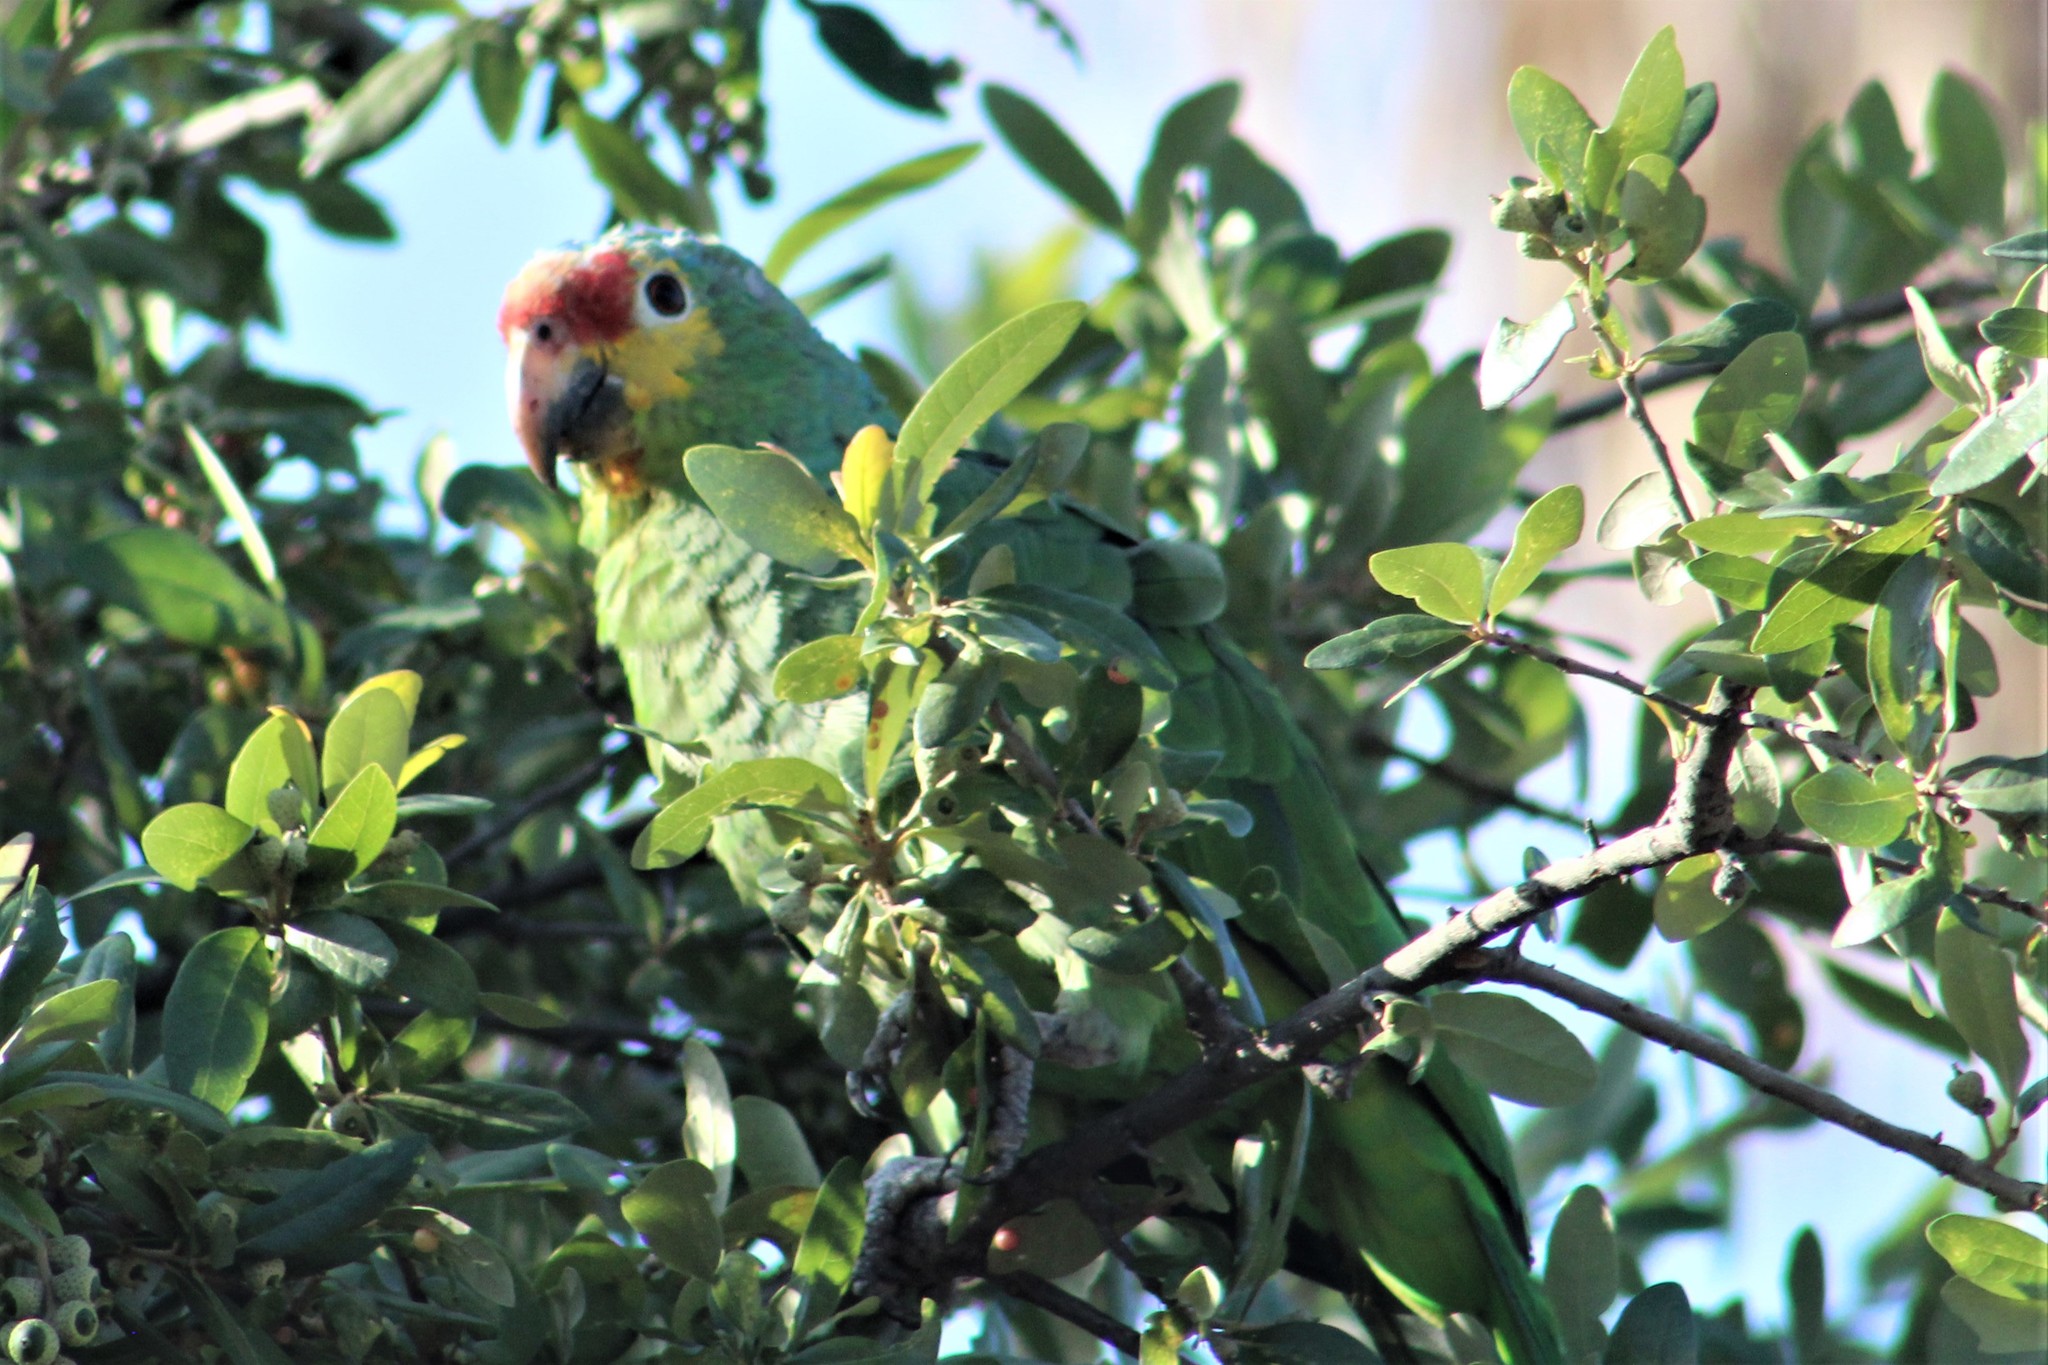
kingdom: Animalia
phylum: Chordata
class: Aves
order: Psittaciformes
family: Psittacidae
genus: Amazona
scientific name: Amazona autumnalis
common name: Red-lored amazon
